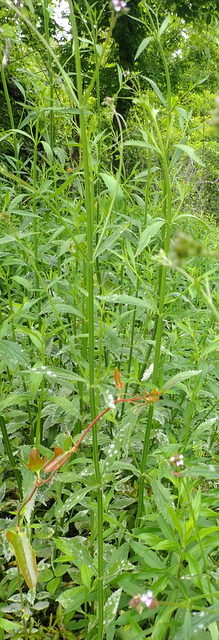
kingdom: Plantae
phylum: Tracheophyta
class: Magnoliopsida
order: Lamiales
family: Verbenaceae
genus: Verbena
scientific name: Verbena brasiliensis
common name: Brazilian vervain
